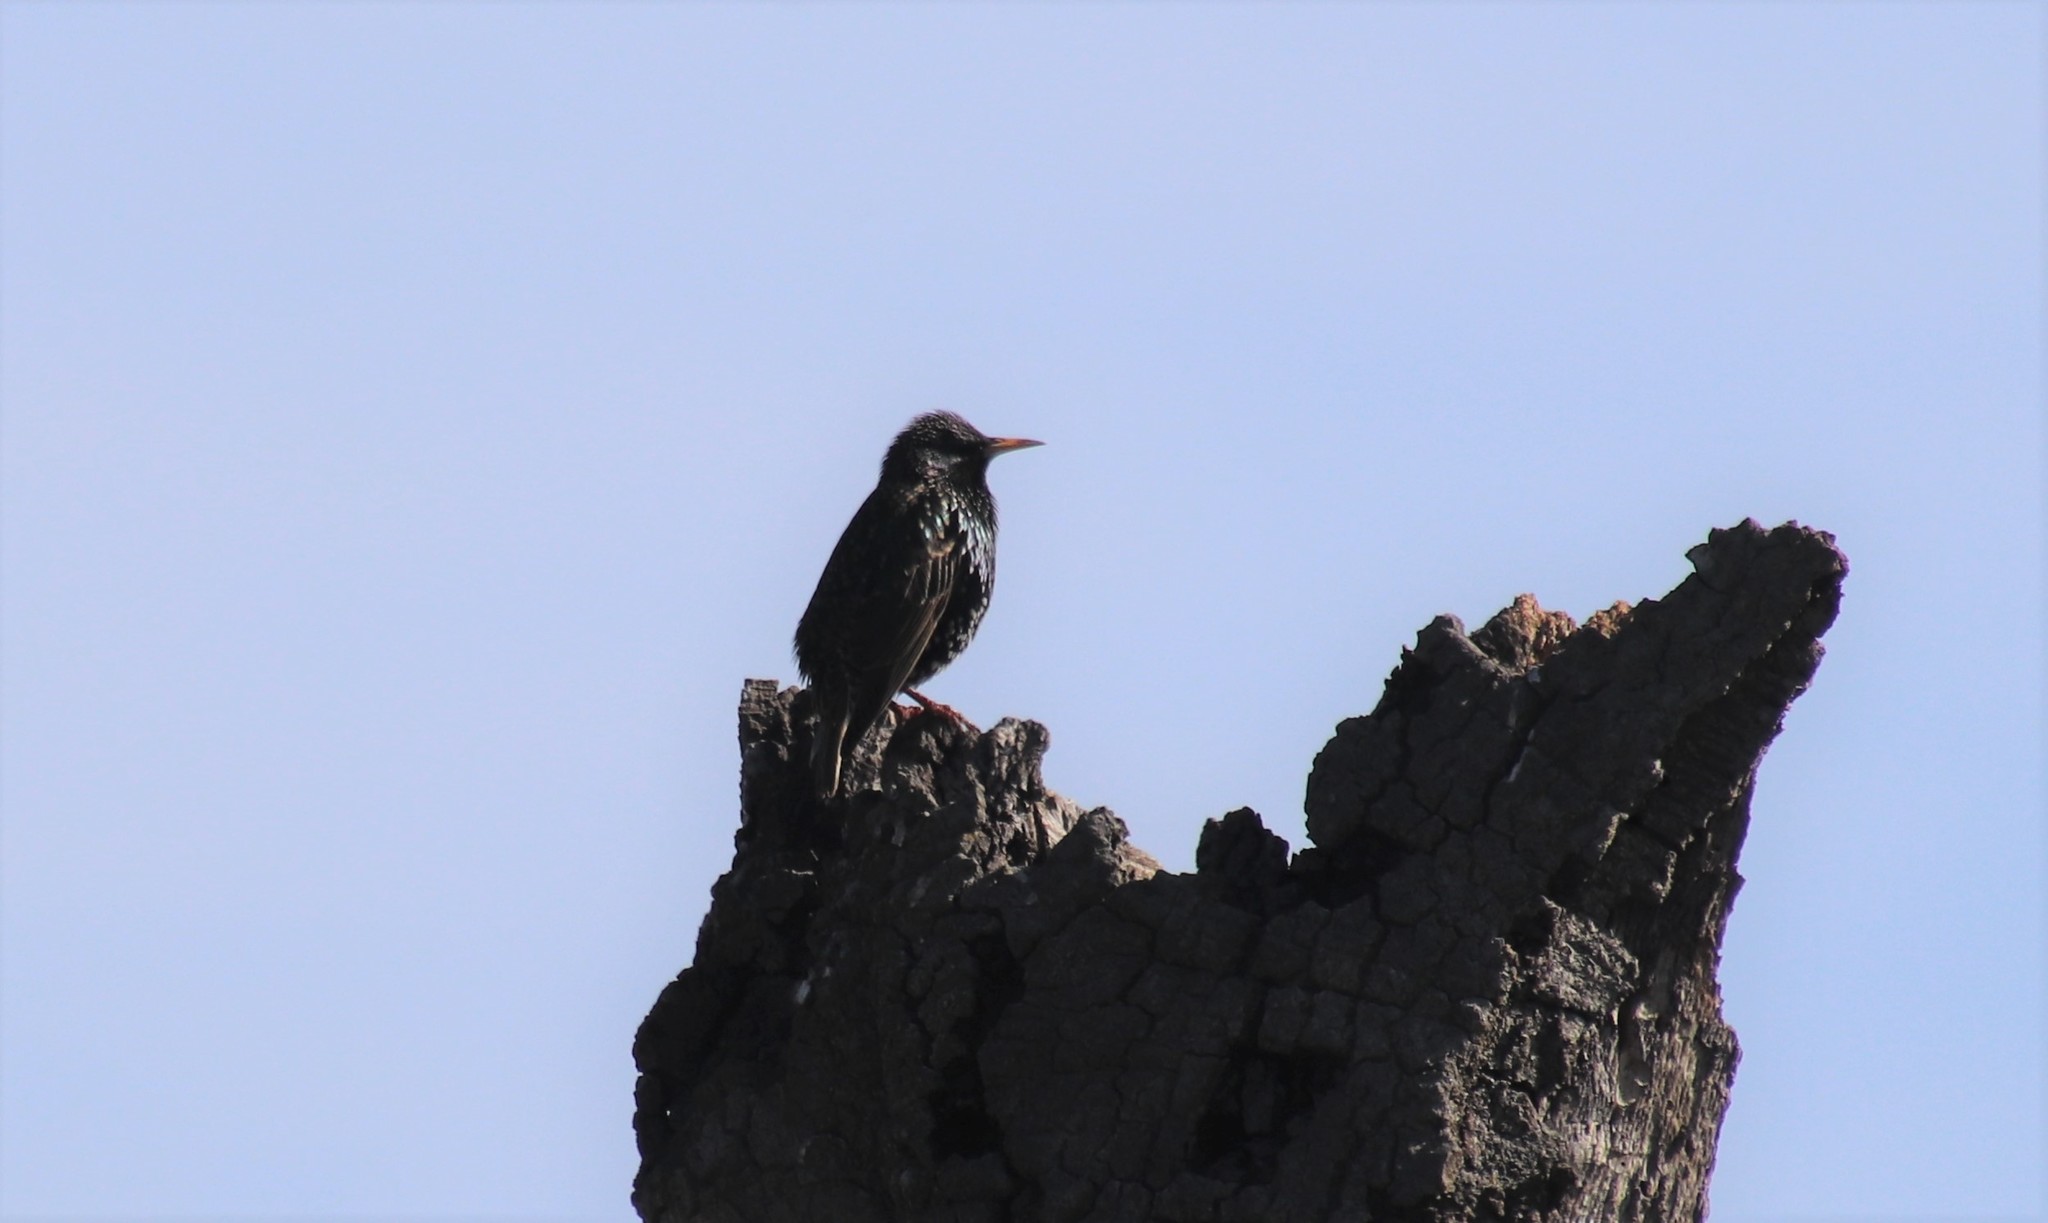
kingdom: Animalia
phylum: Chordata
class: Aves
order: Passeriformes
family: Sturnidae
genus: Sturnus
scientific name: Sturnus vulgaris
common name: Common starling
